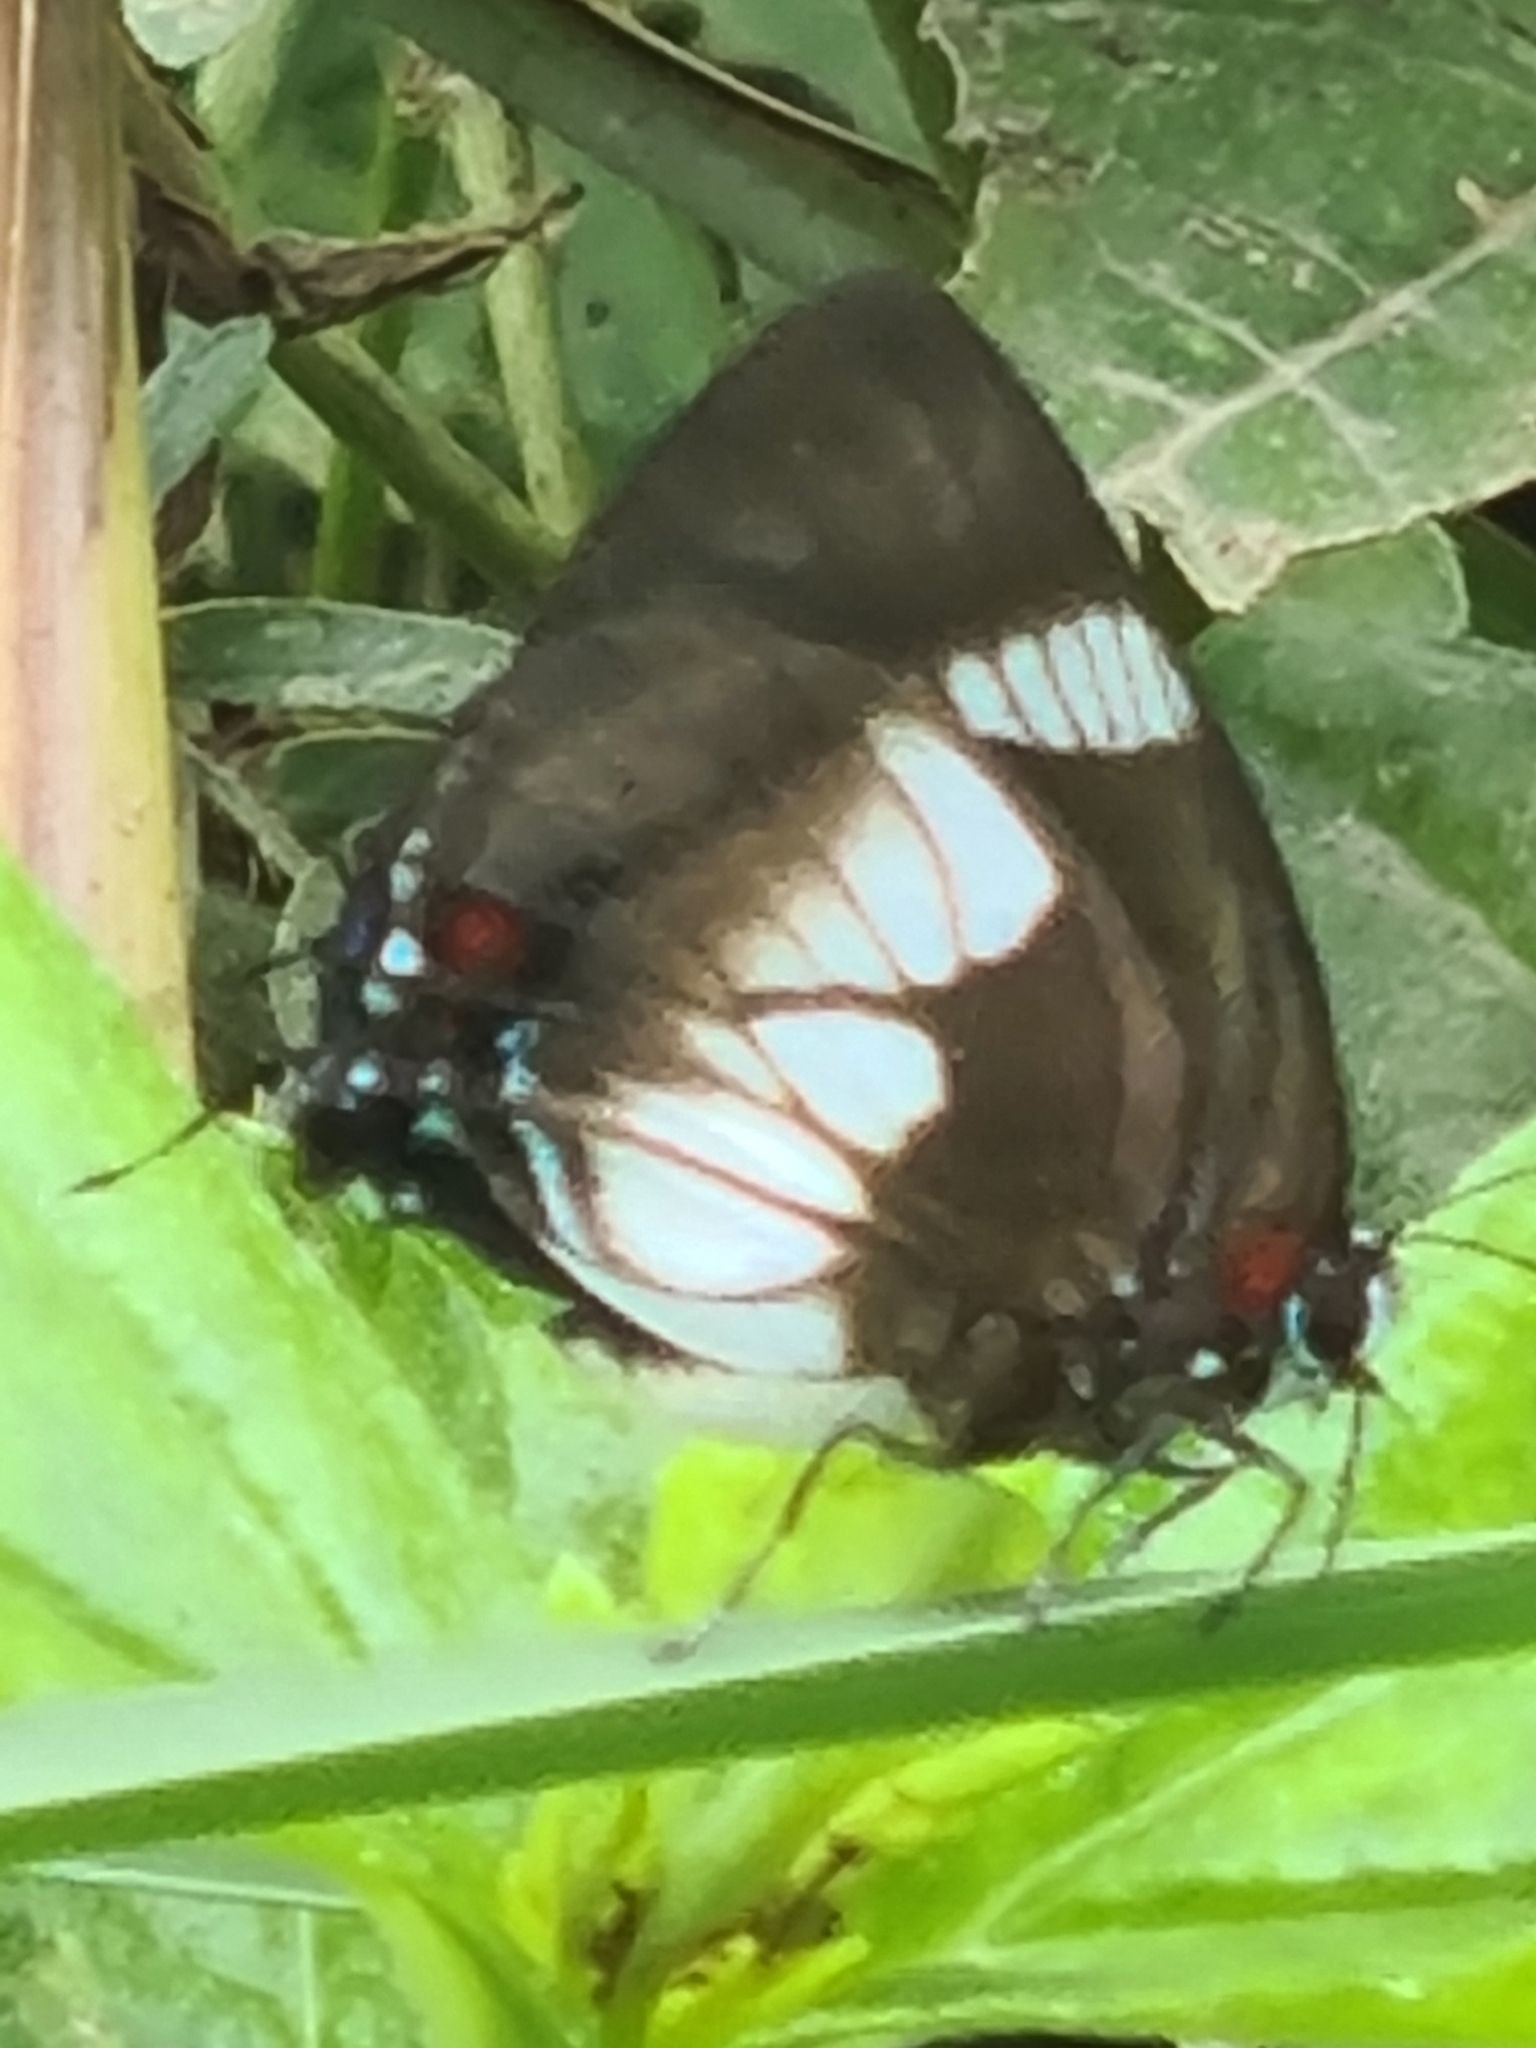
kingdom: Animalia
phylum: Arthropoda
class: Insecta
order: Lepidoptera
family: Lycaenidae
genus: Panthiades
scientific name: Panthiades pelion
